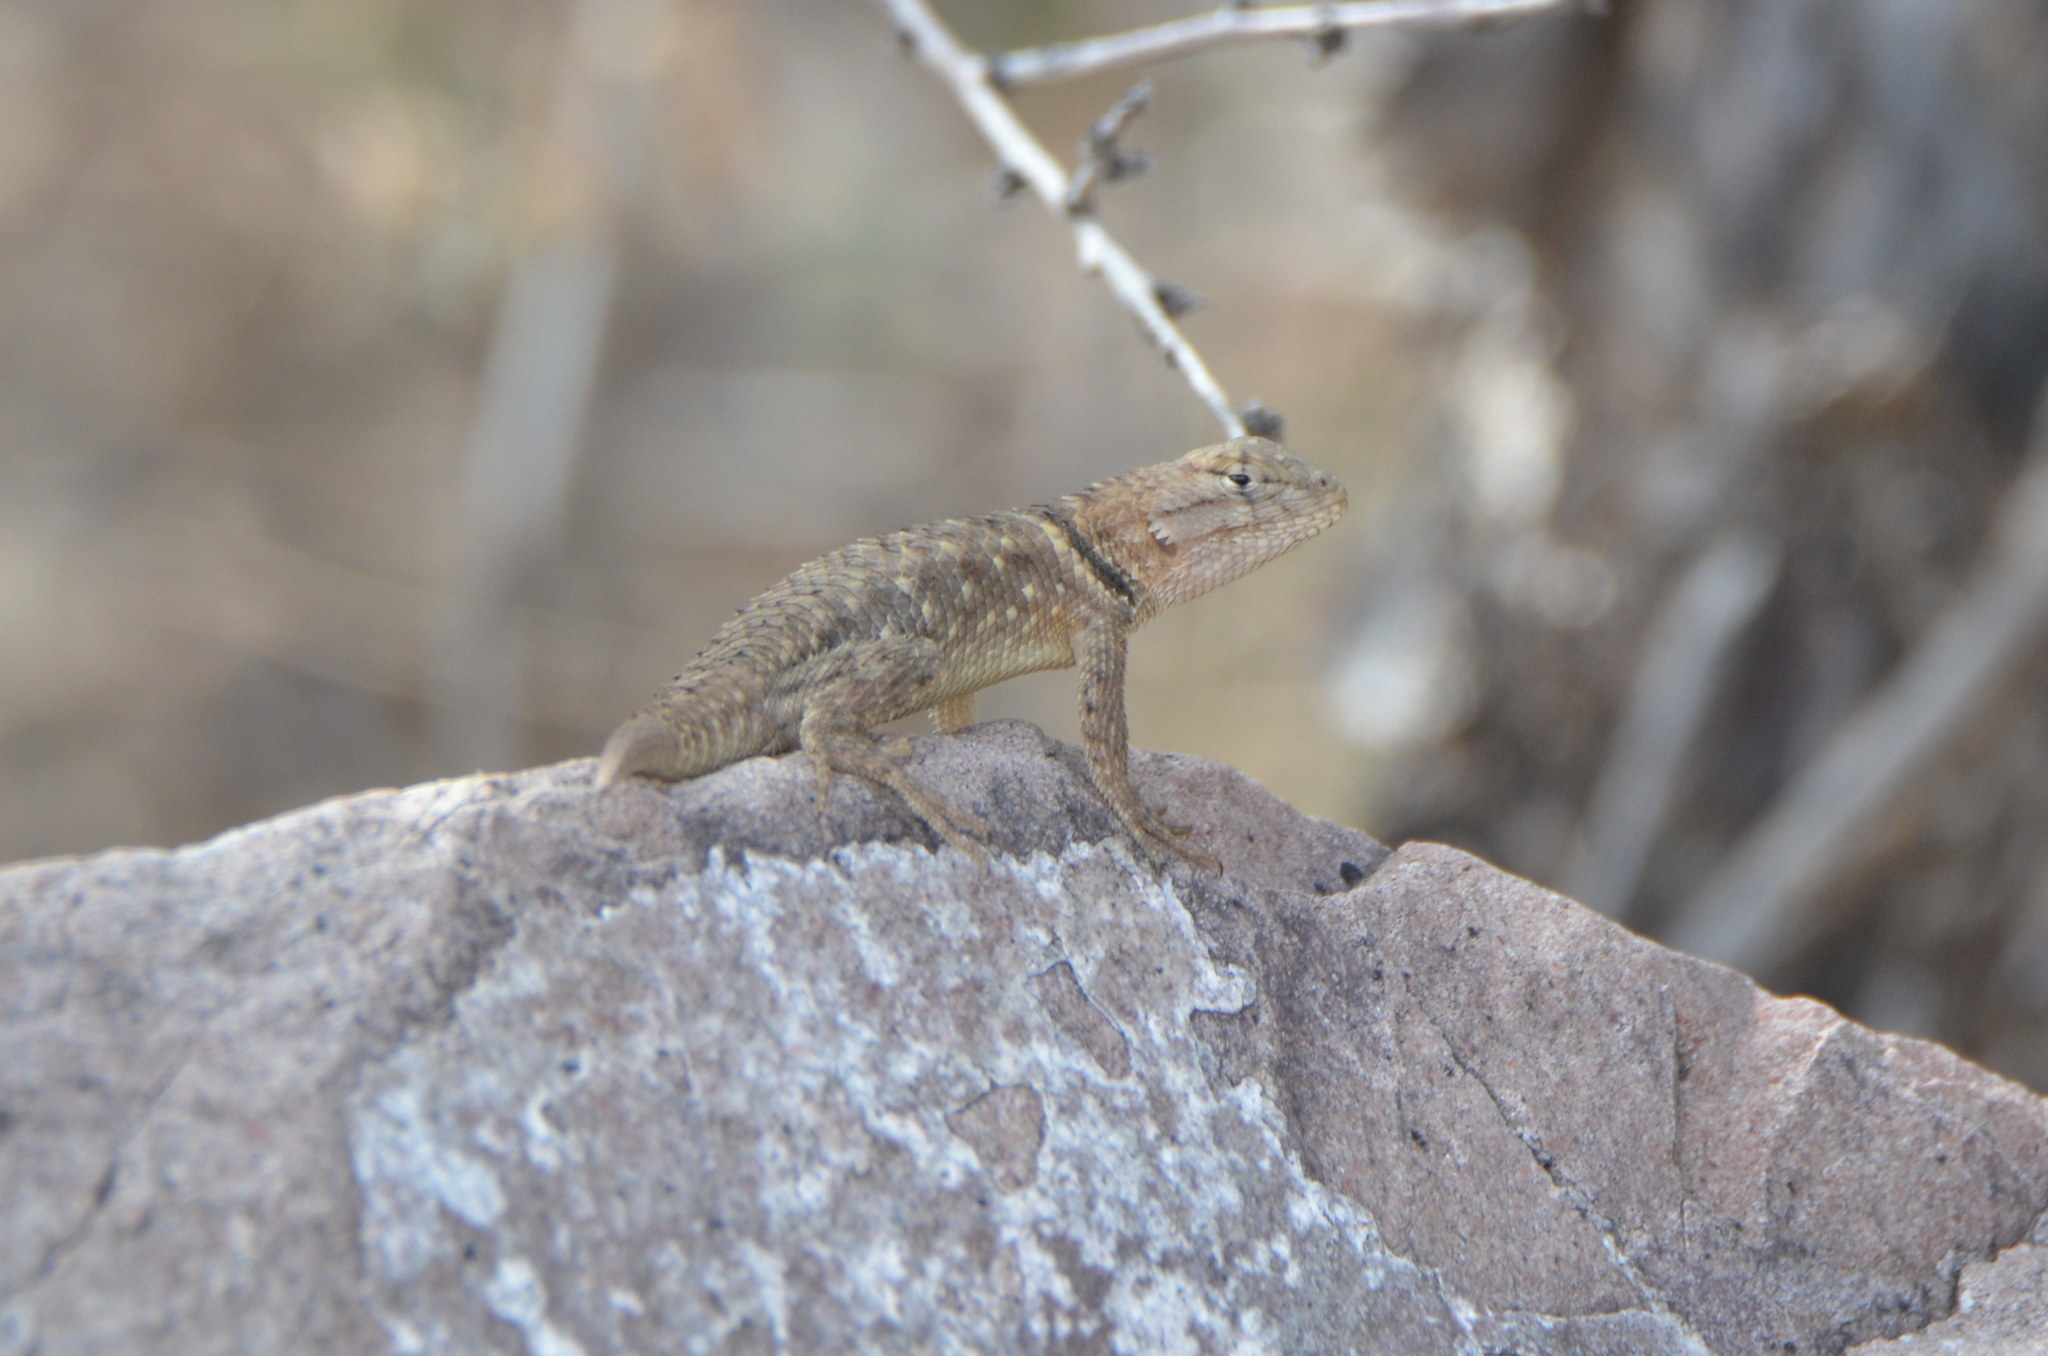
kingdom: Animalia
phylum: Chordata
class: Squamata
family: Phrynosomatidae
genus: Sceloporus
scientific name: Sceloporus magister
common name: Desert spiny lizard
